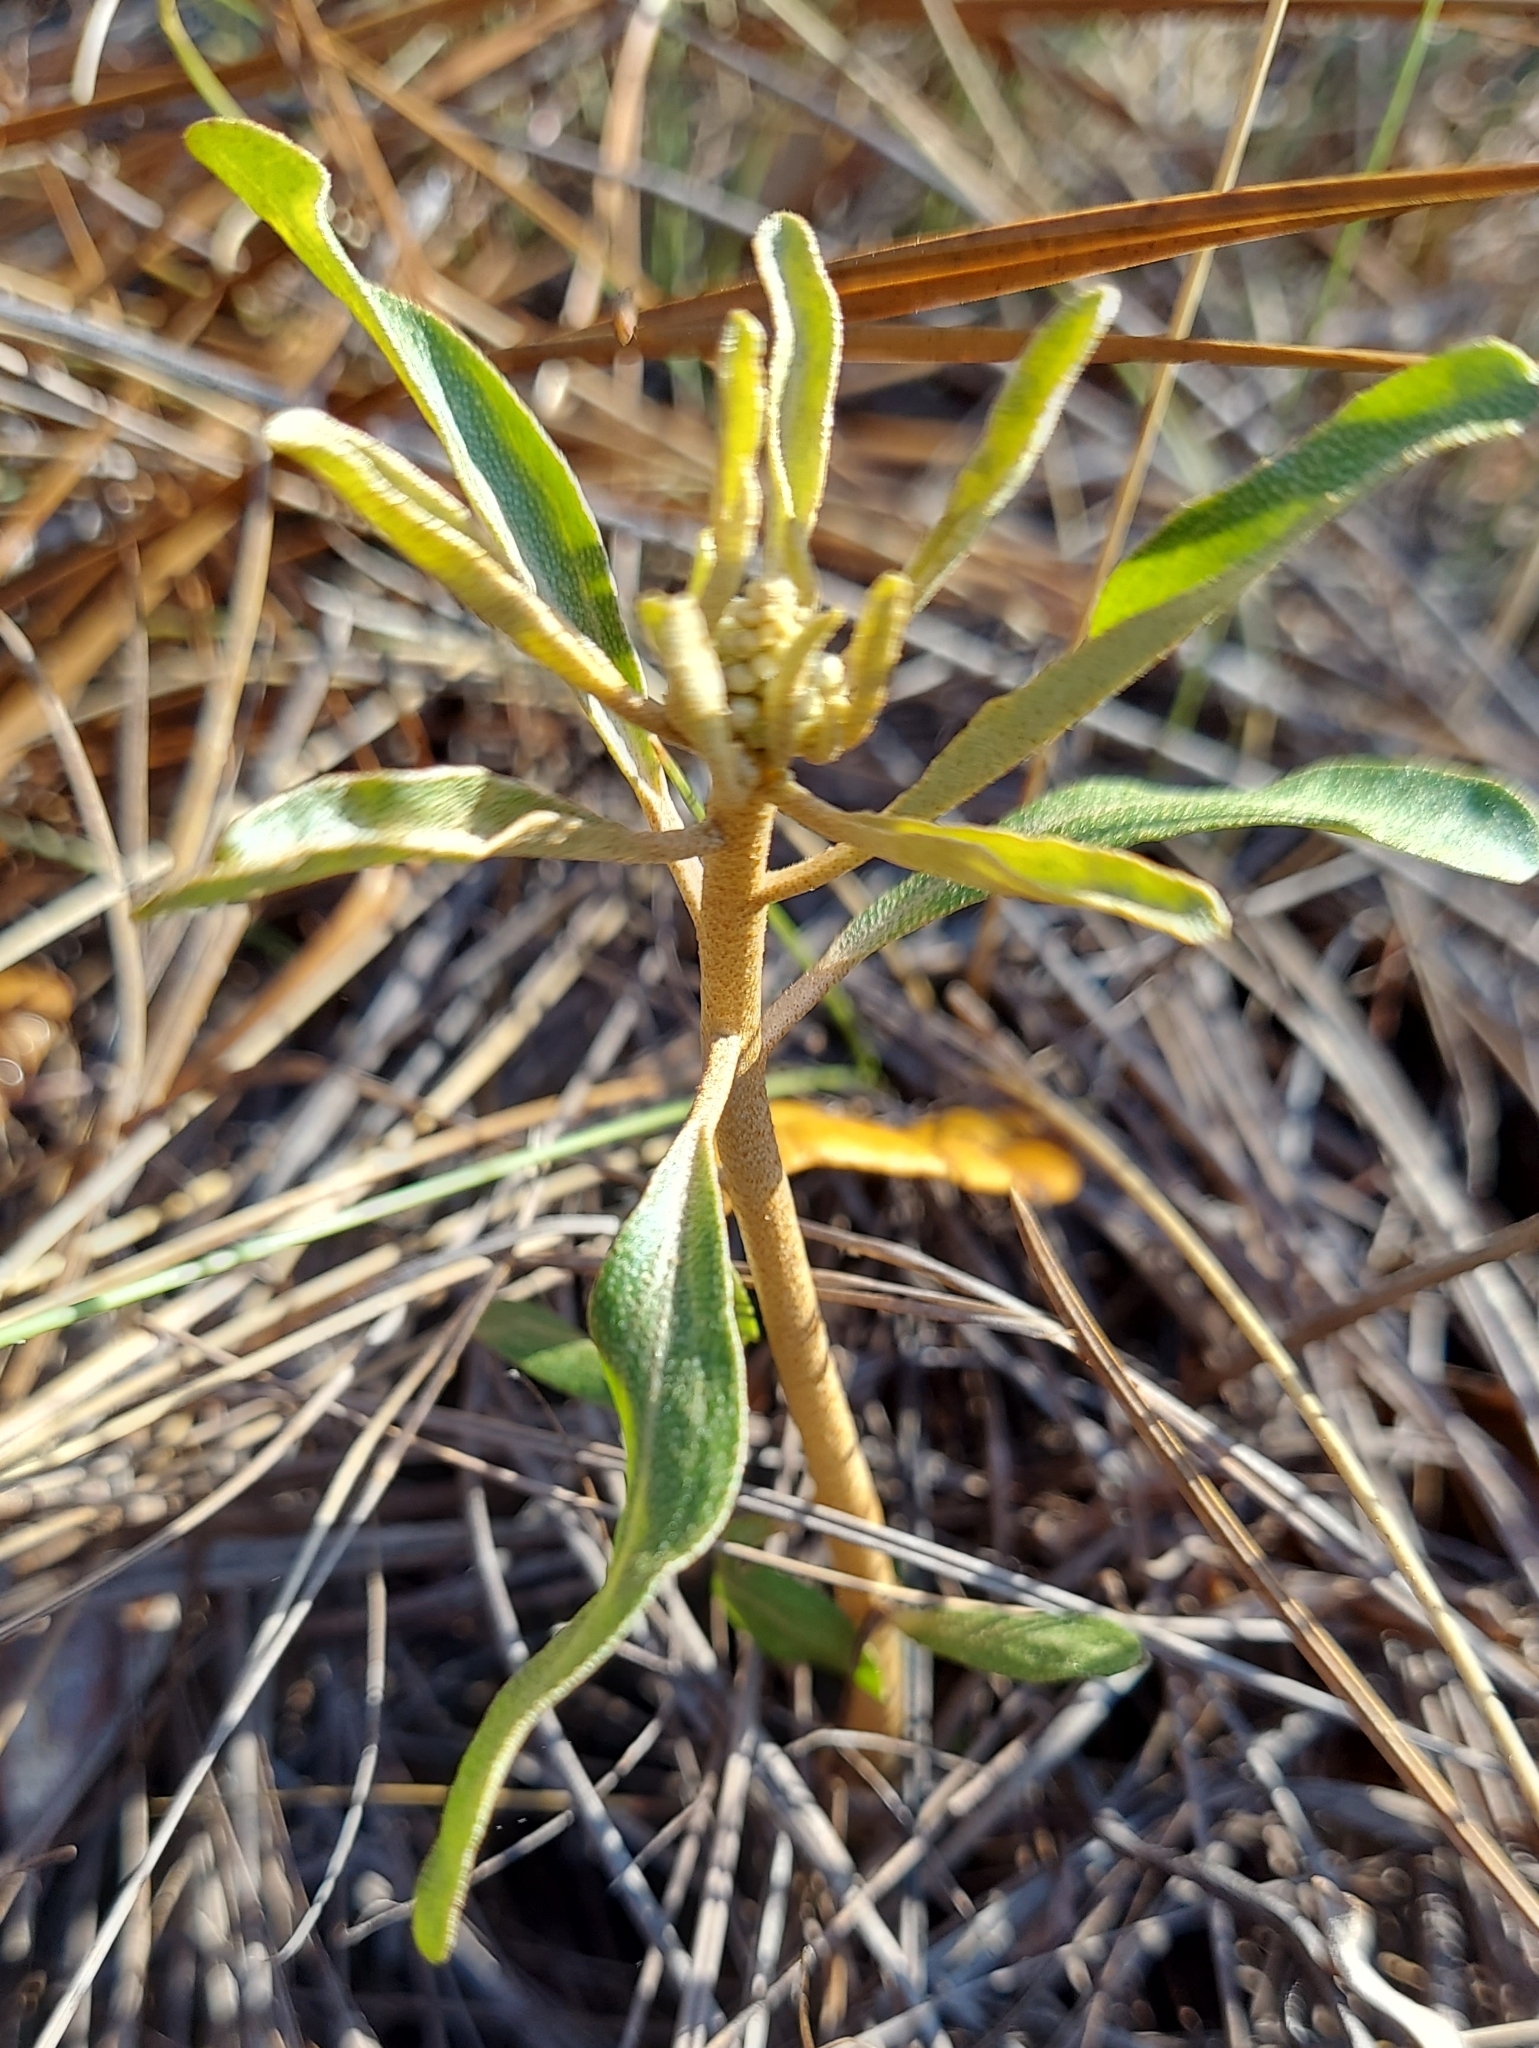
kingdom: Plantae
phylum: Tracheophyta
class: Magnoliopsida
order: Malpighiales
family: Euphorbiaceae
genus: Croton
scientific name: Croton argyranthemus
